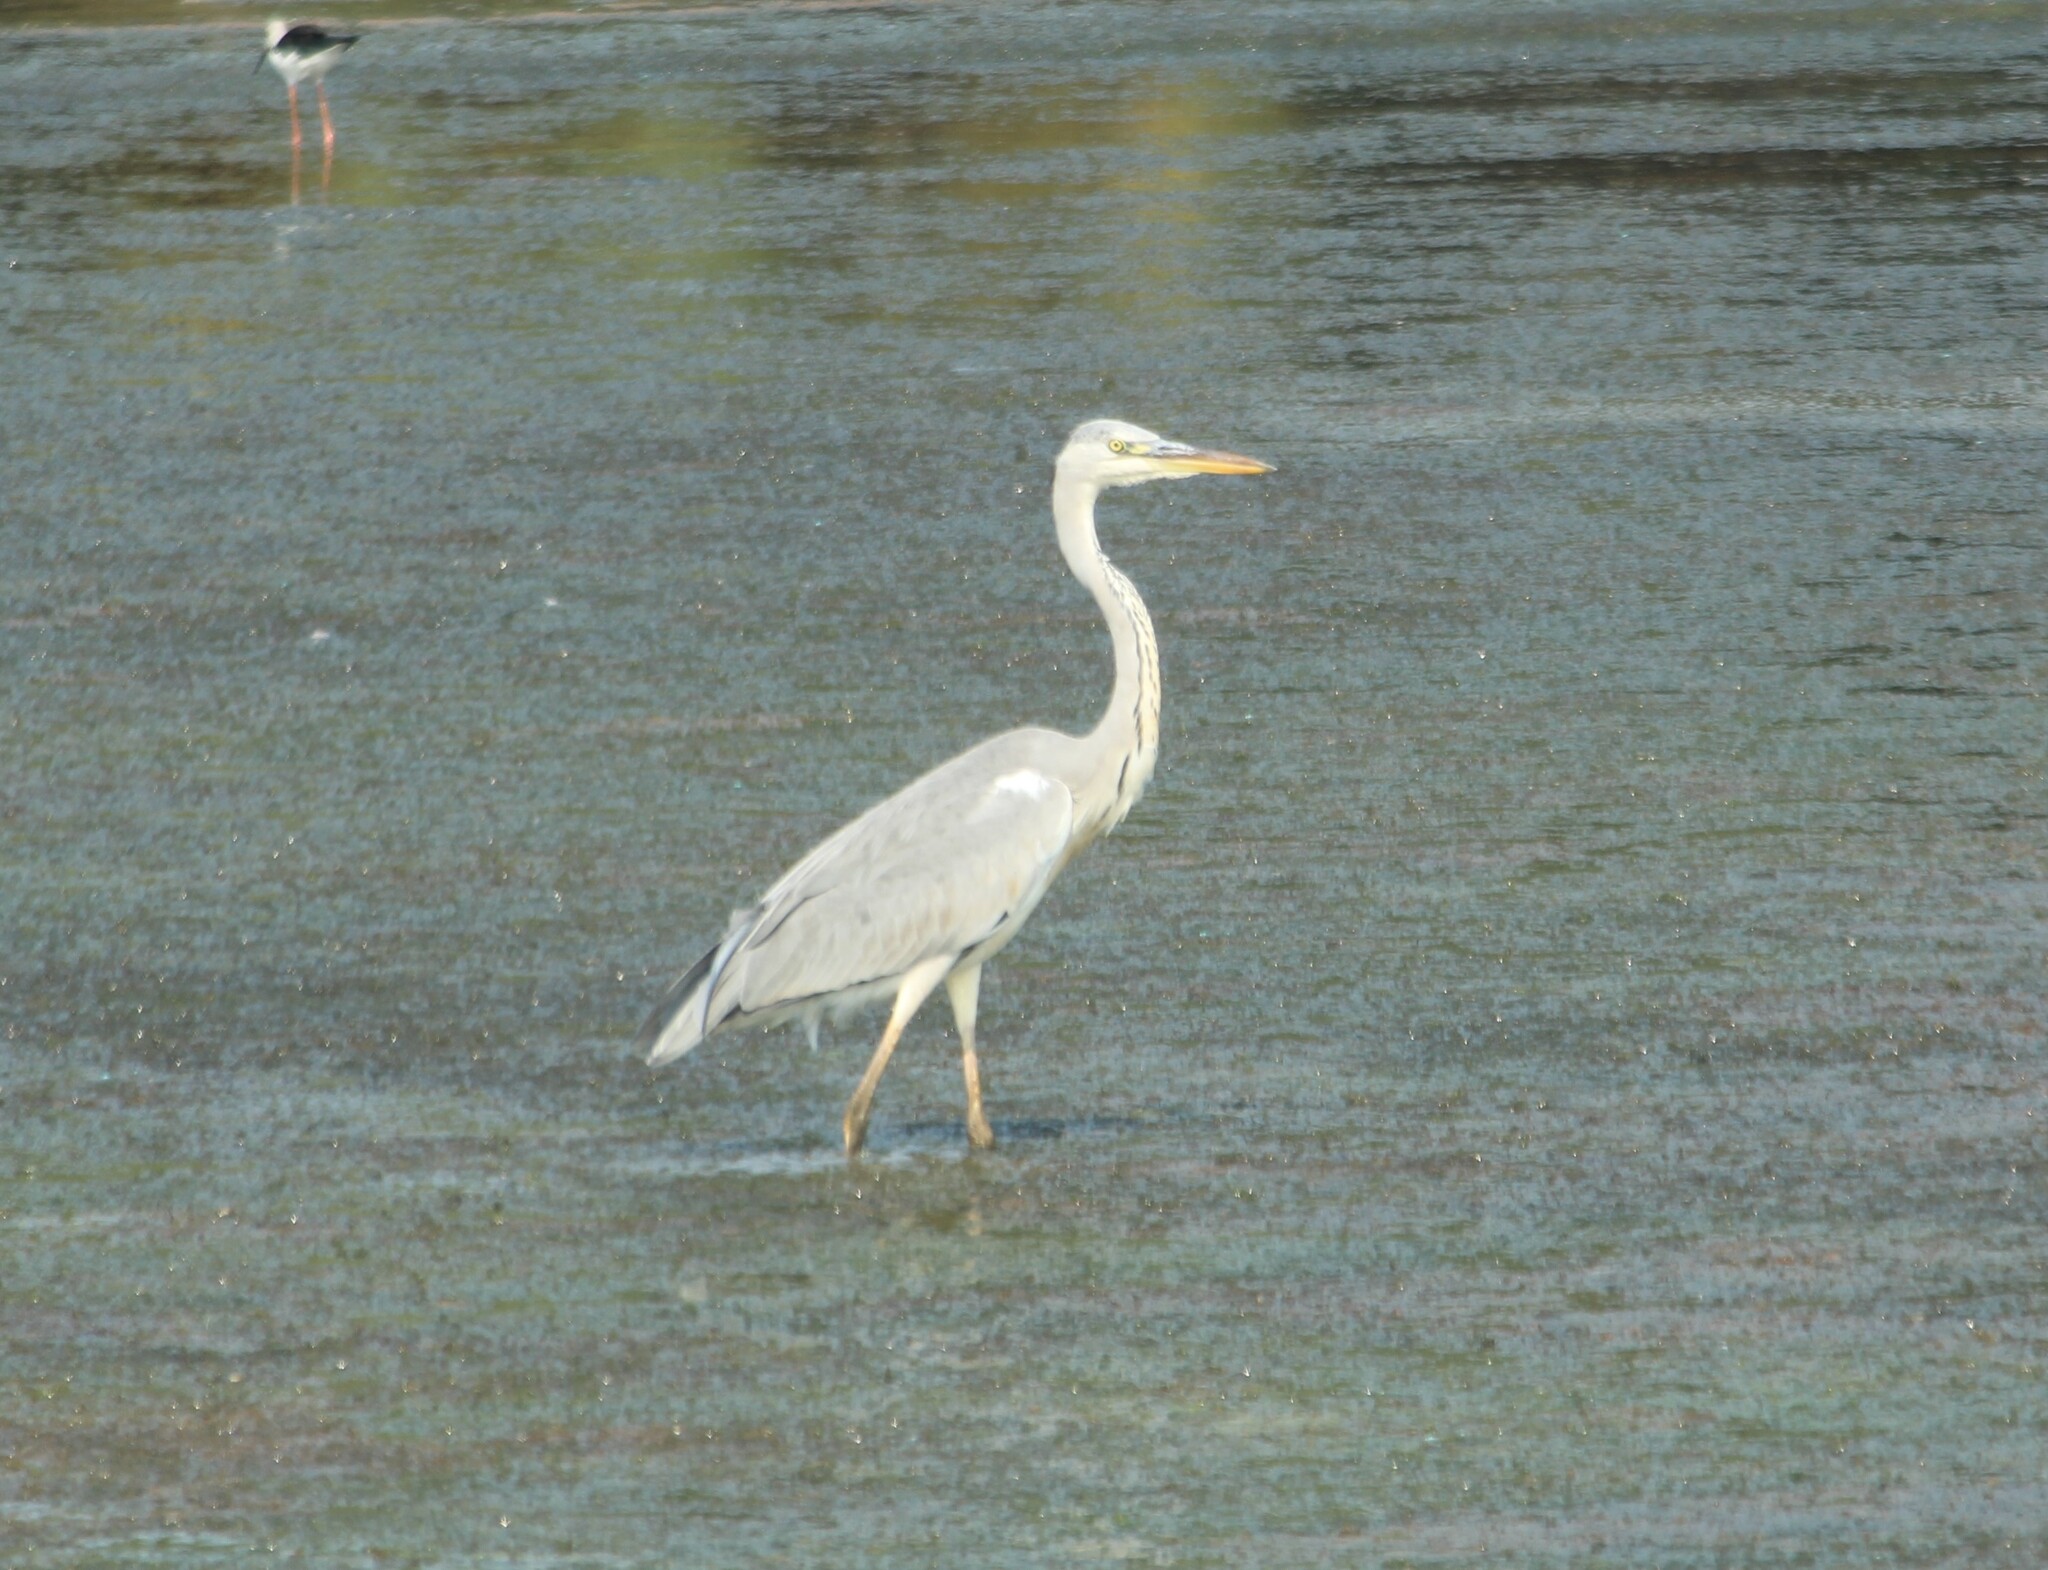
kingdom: Animalia
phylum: Chordata
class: Aves
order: Pelecaniformes
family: Ardeidae
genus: Ardea
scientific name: Ardea cinerea
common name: Grey heron
